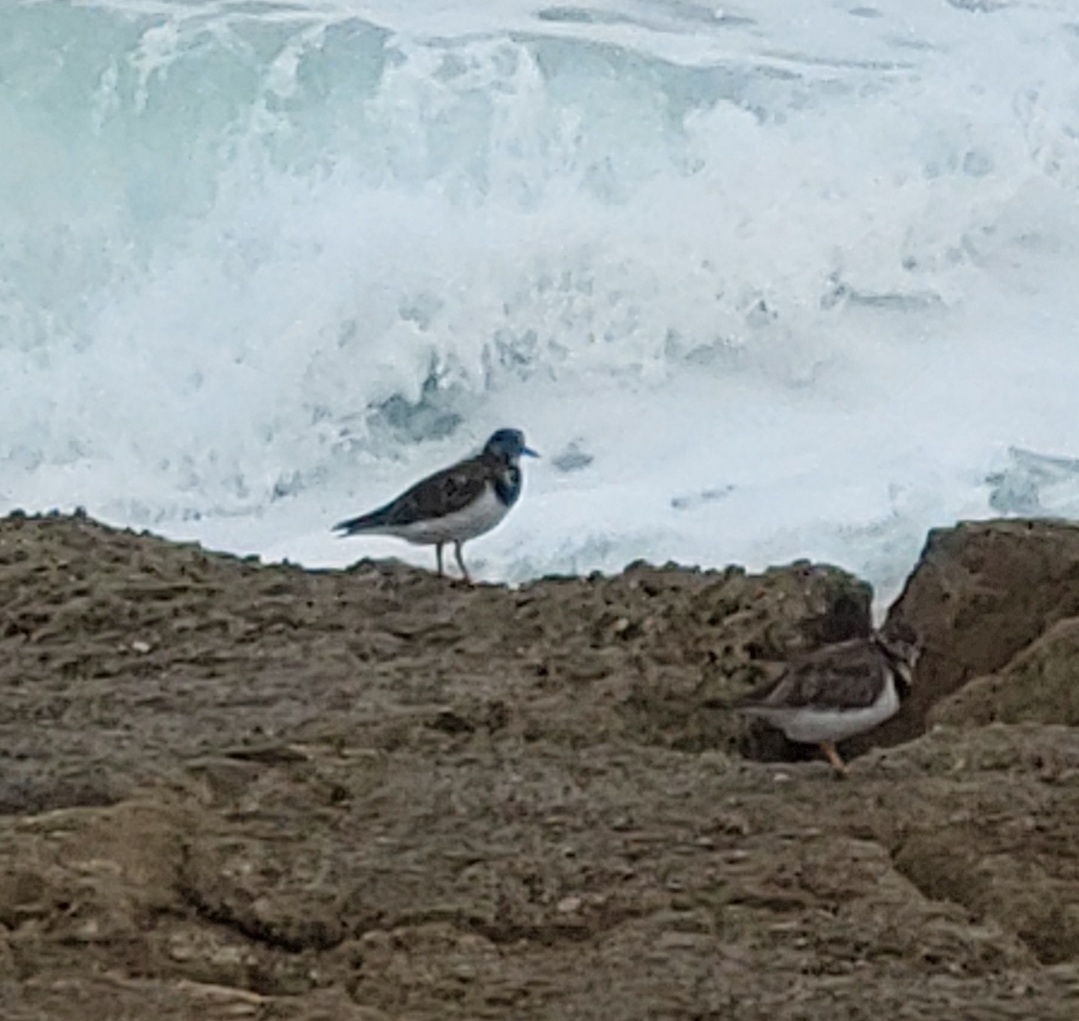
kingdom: Animalia
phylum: Chordata
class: Aves
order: Charadriiformes
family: Scolopacidae
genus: Arenaria
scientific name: Arenaria interpres
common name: Ruddy turnstone
